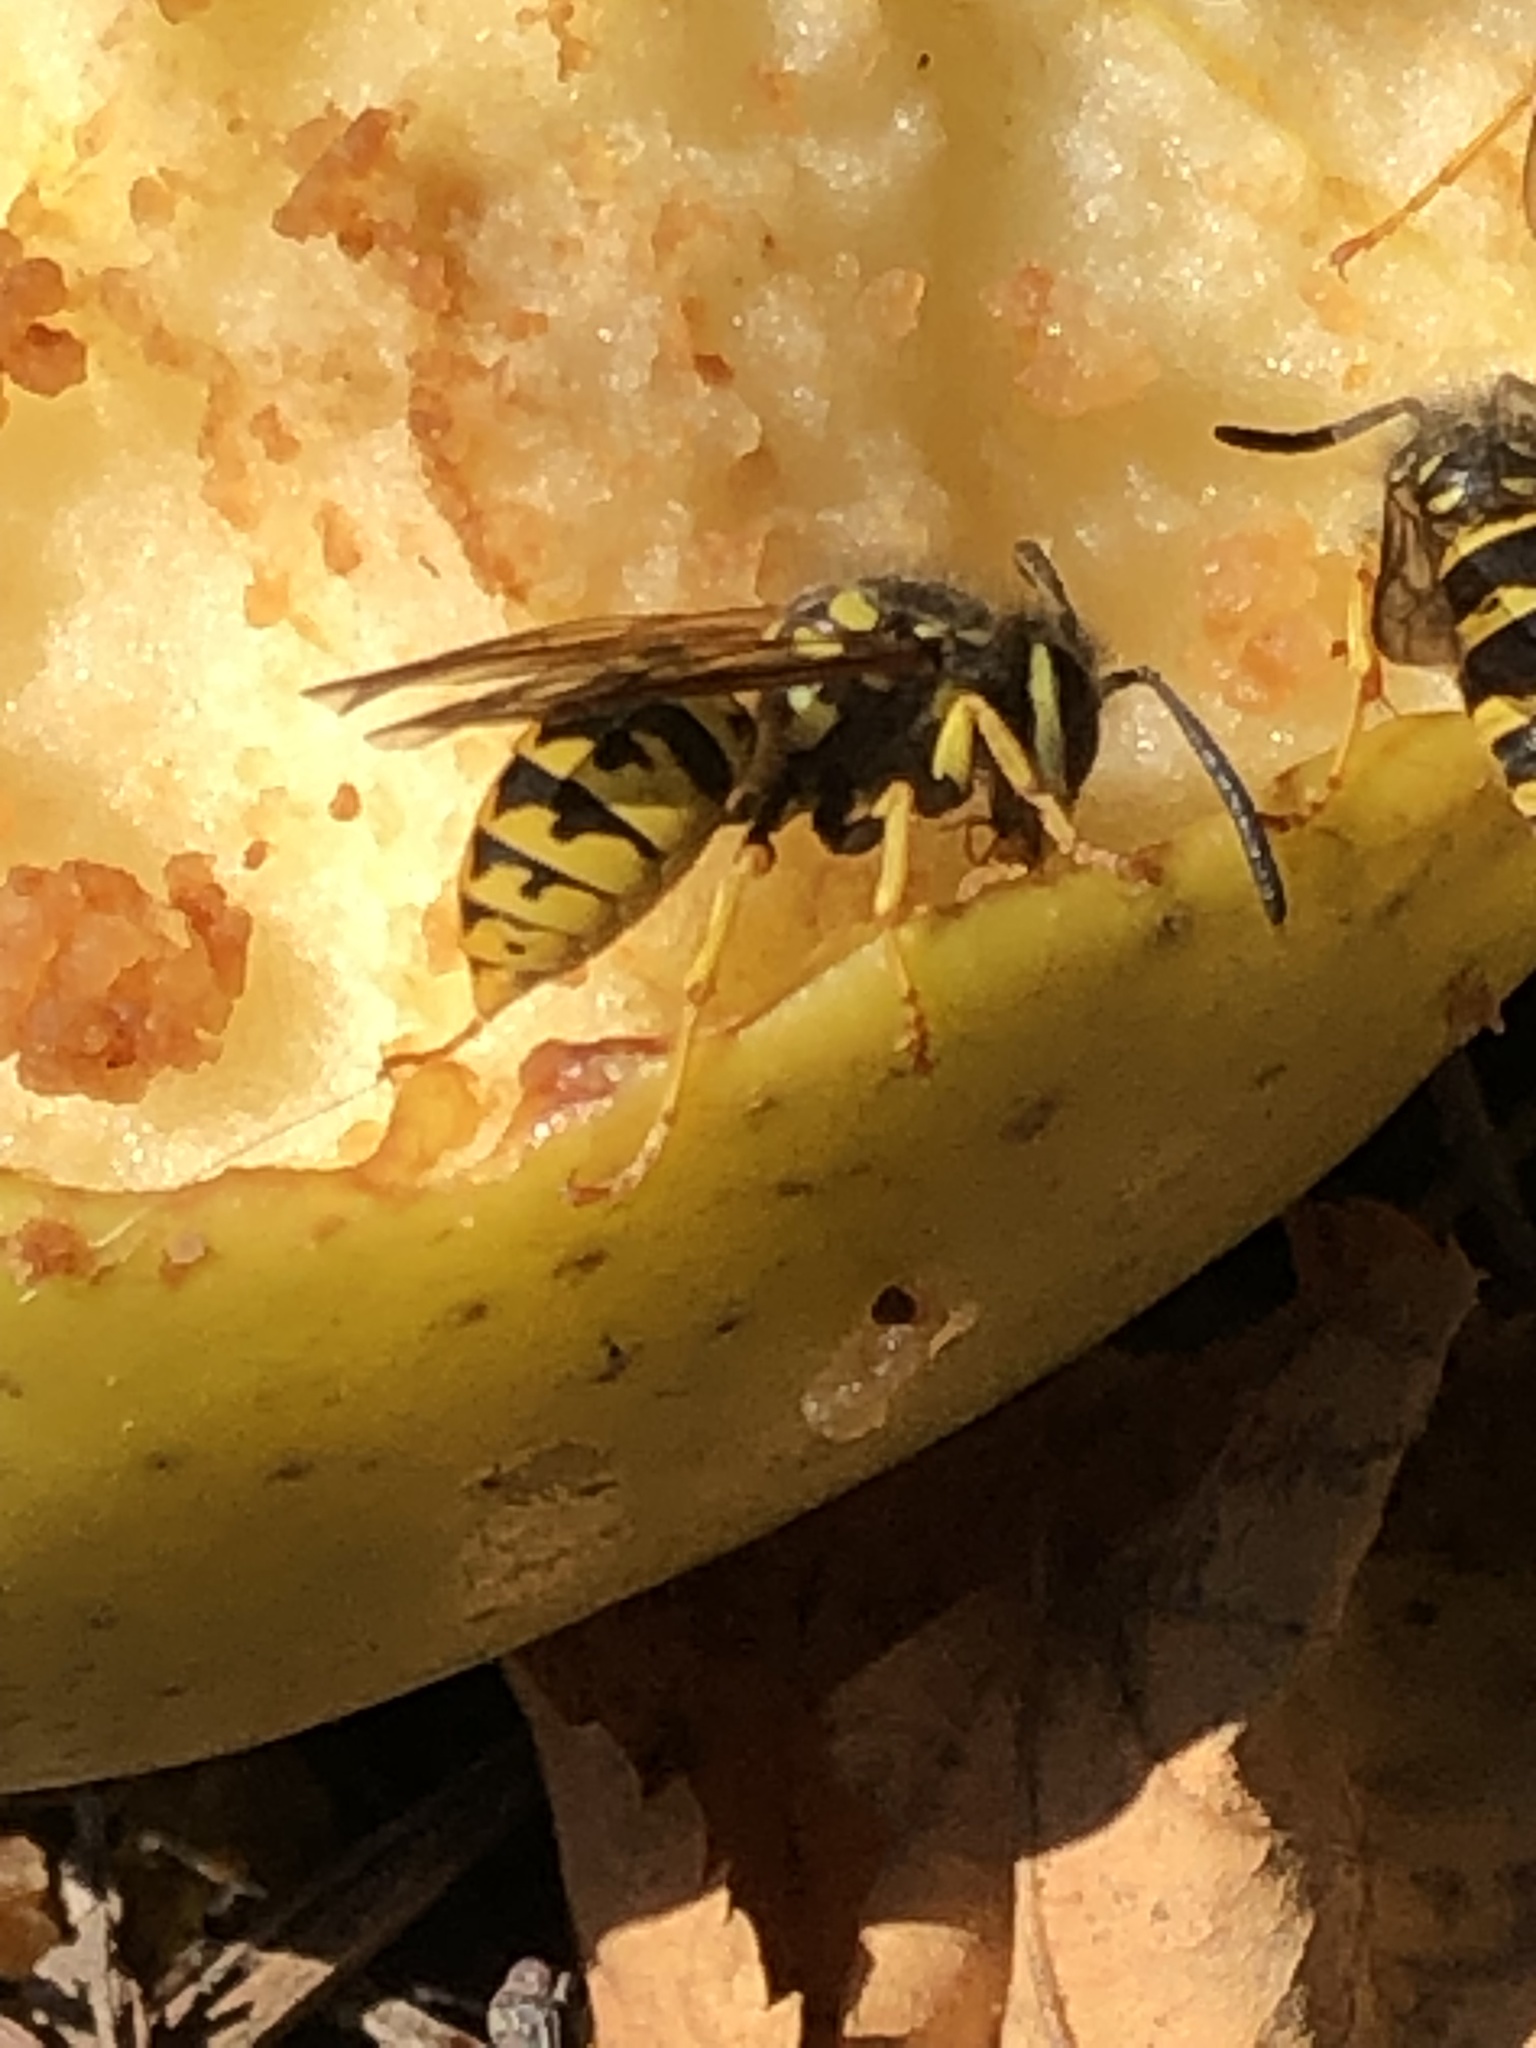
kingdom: Animalia
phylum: Arthropoda
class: Insecta
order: Hymenoptera
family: Vespidae
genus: Vespula
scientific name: Vespula germanica
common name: German wasp
